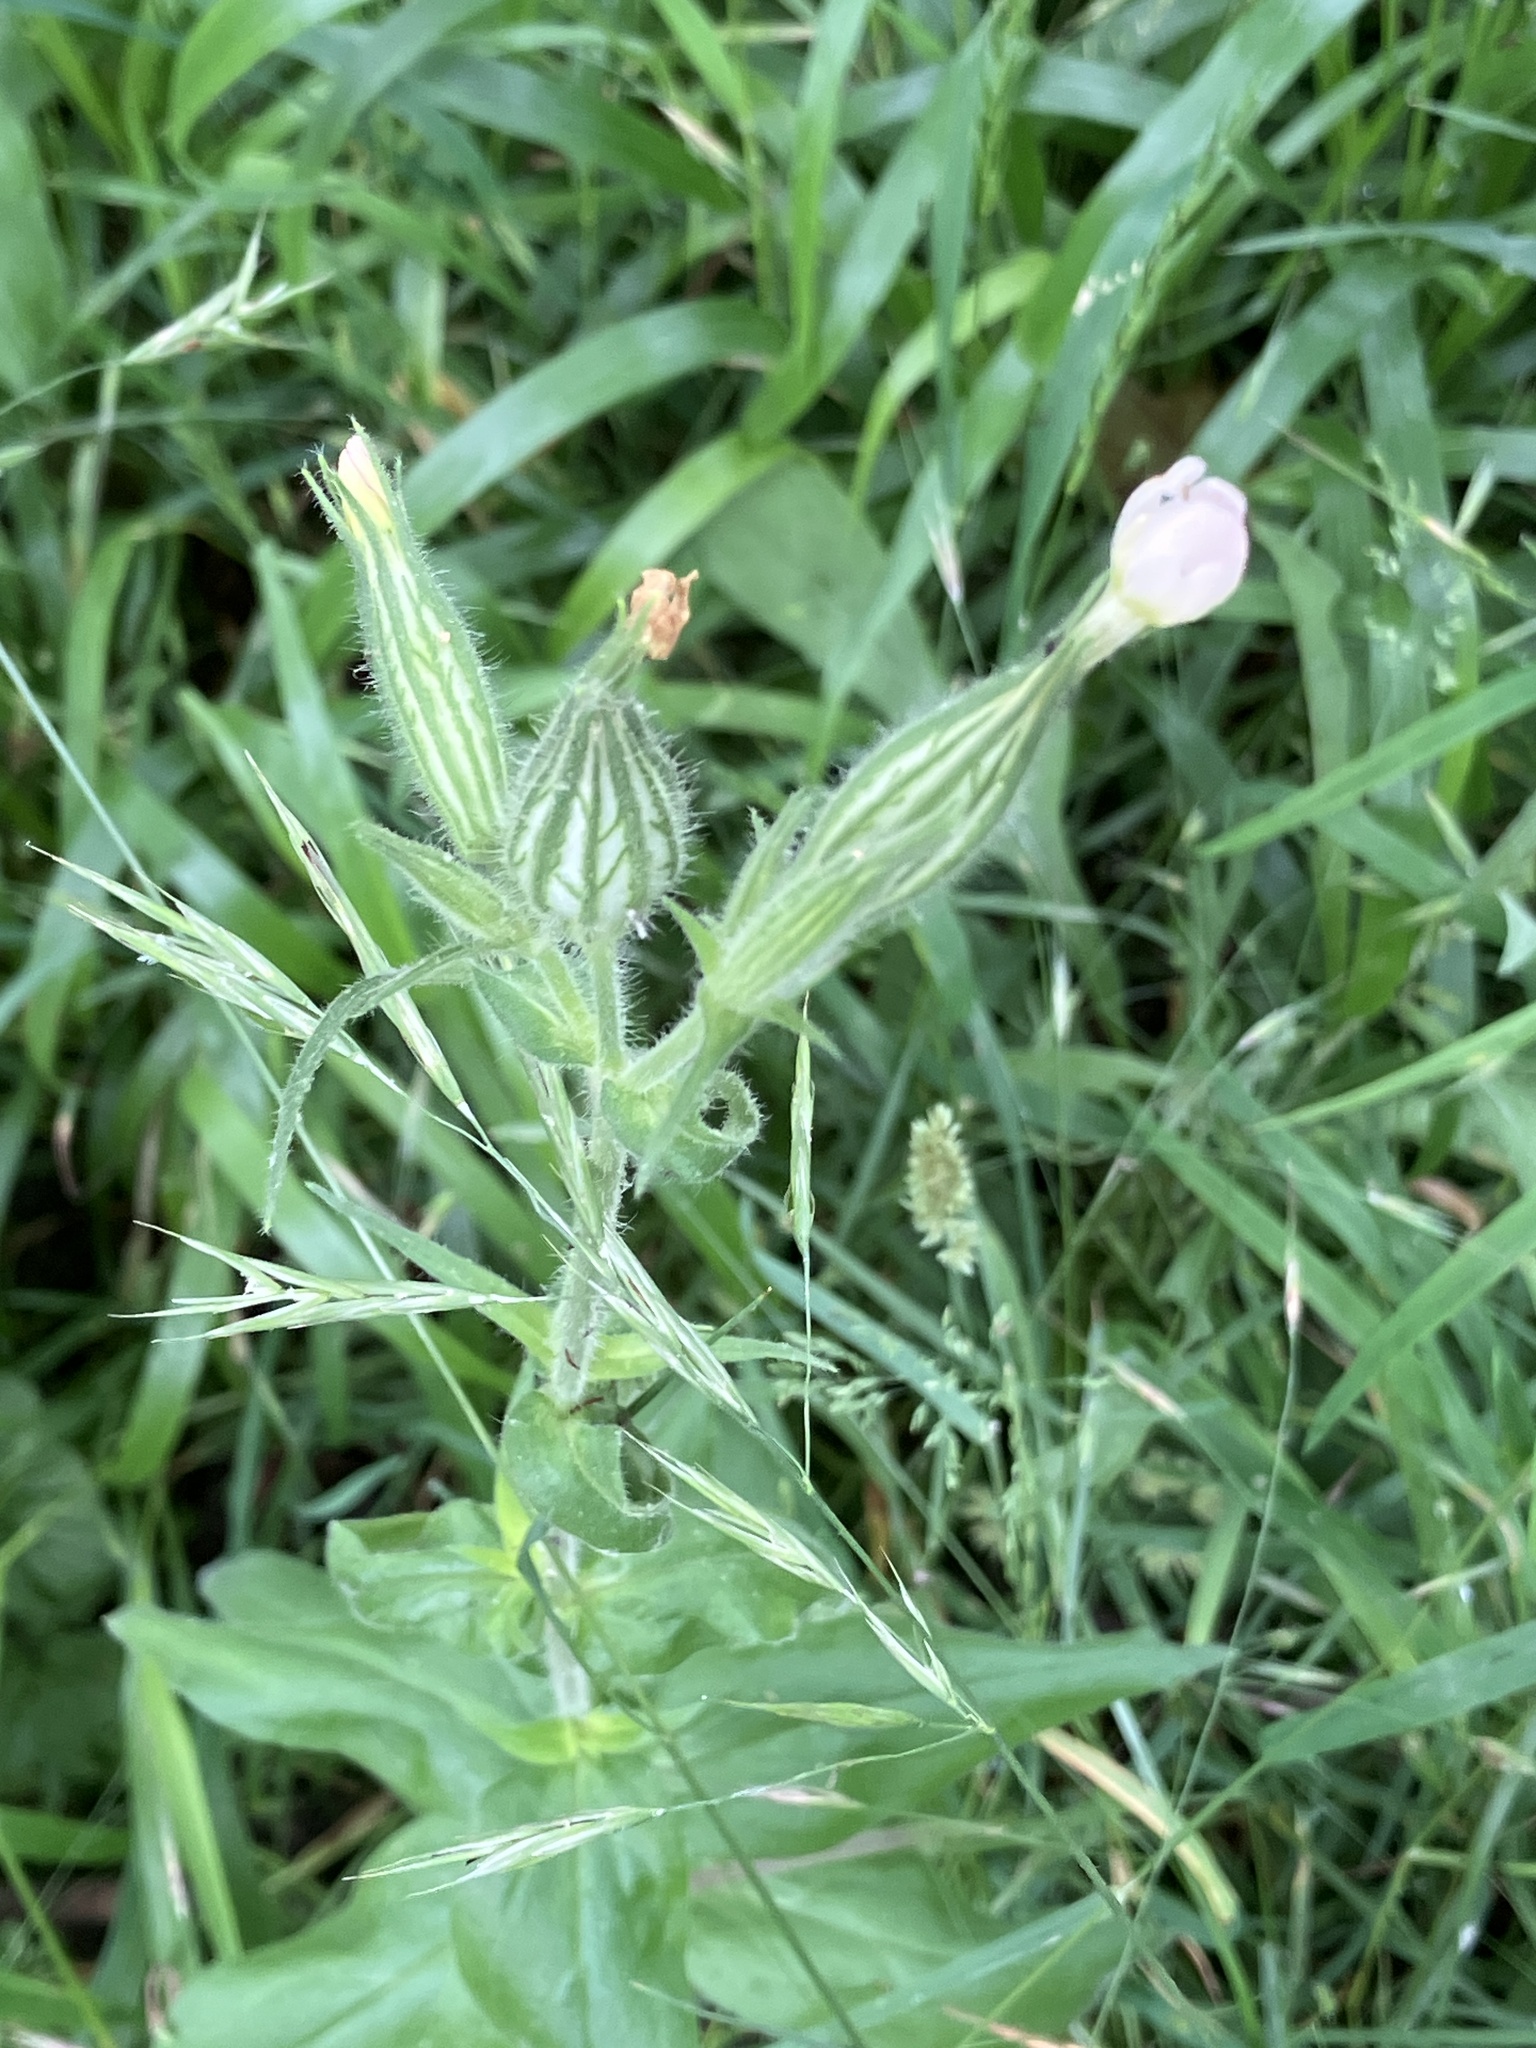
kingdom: Plantae
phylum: Tracheophyta
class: Magnoliopsida
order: Caryophyllales
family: Caryophyllaceae
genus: Silene
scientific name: Silene latifolia
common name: White campion
